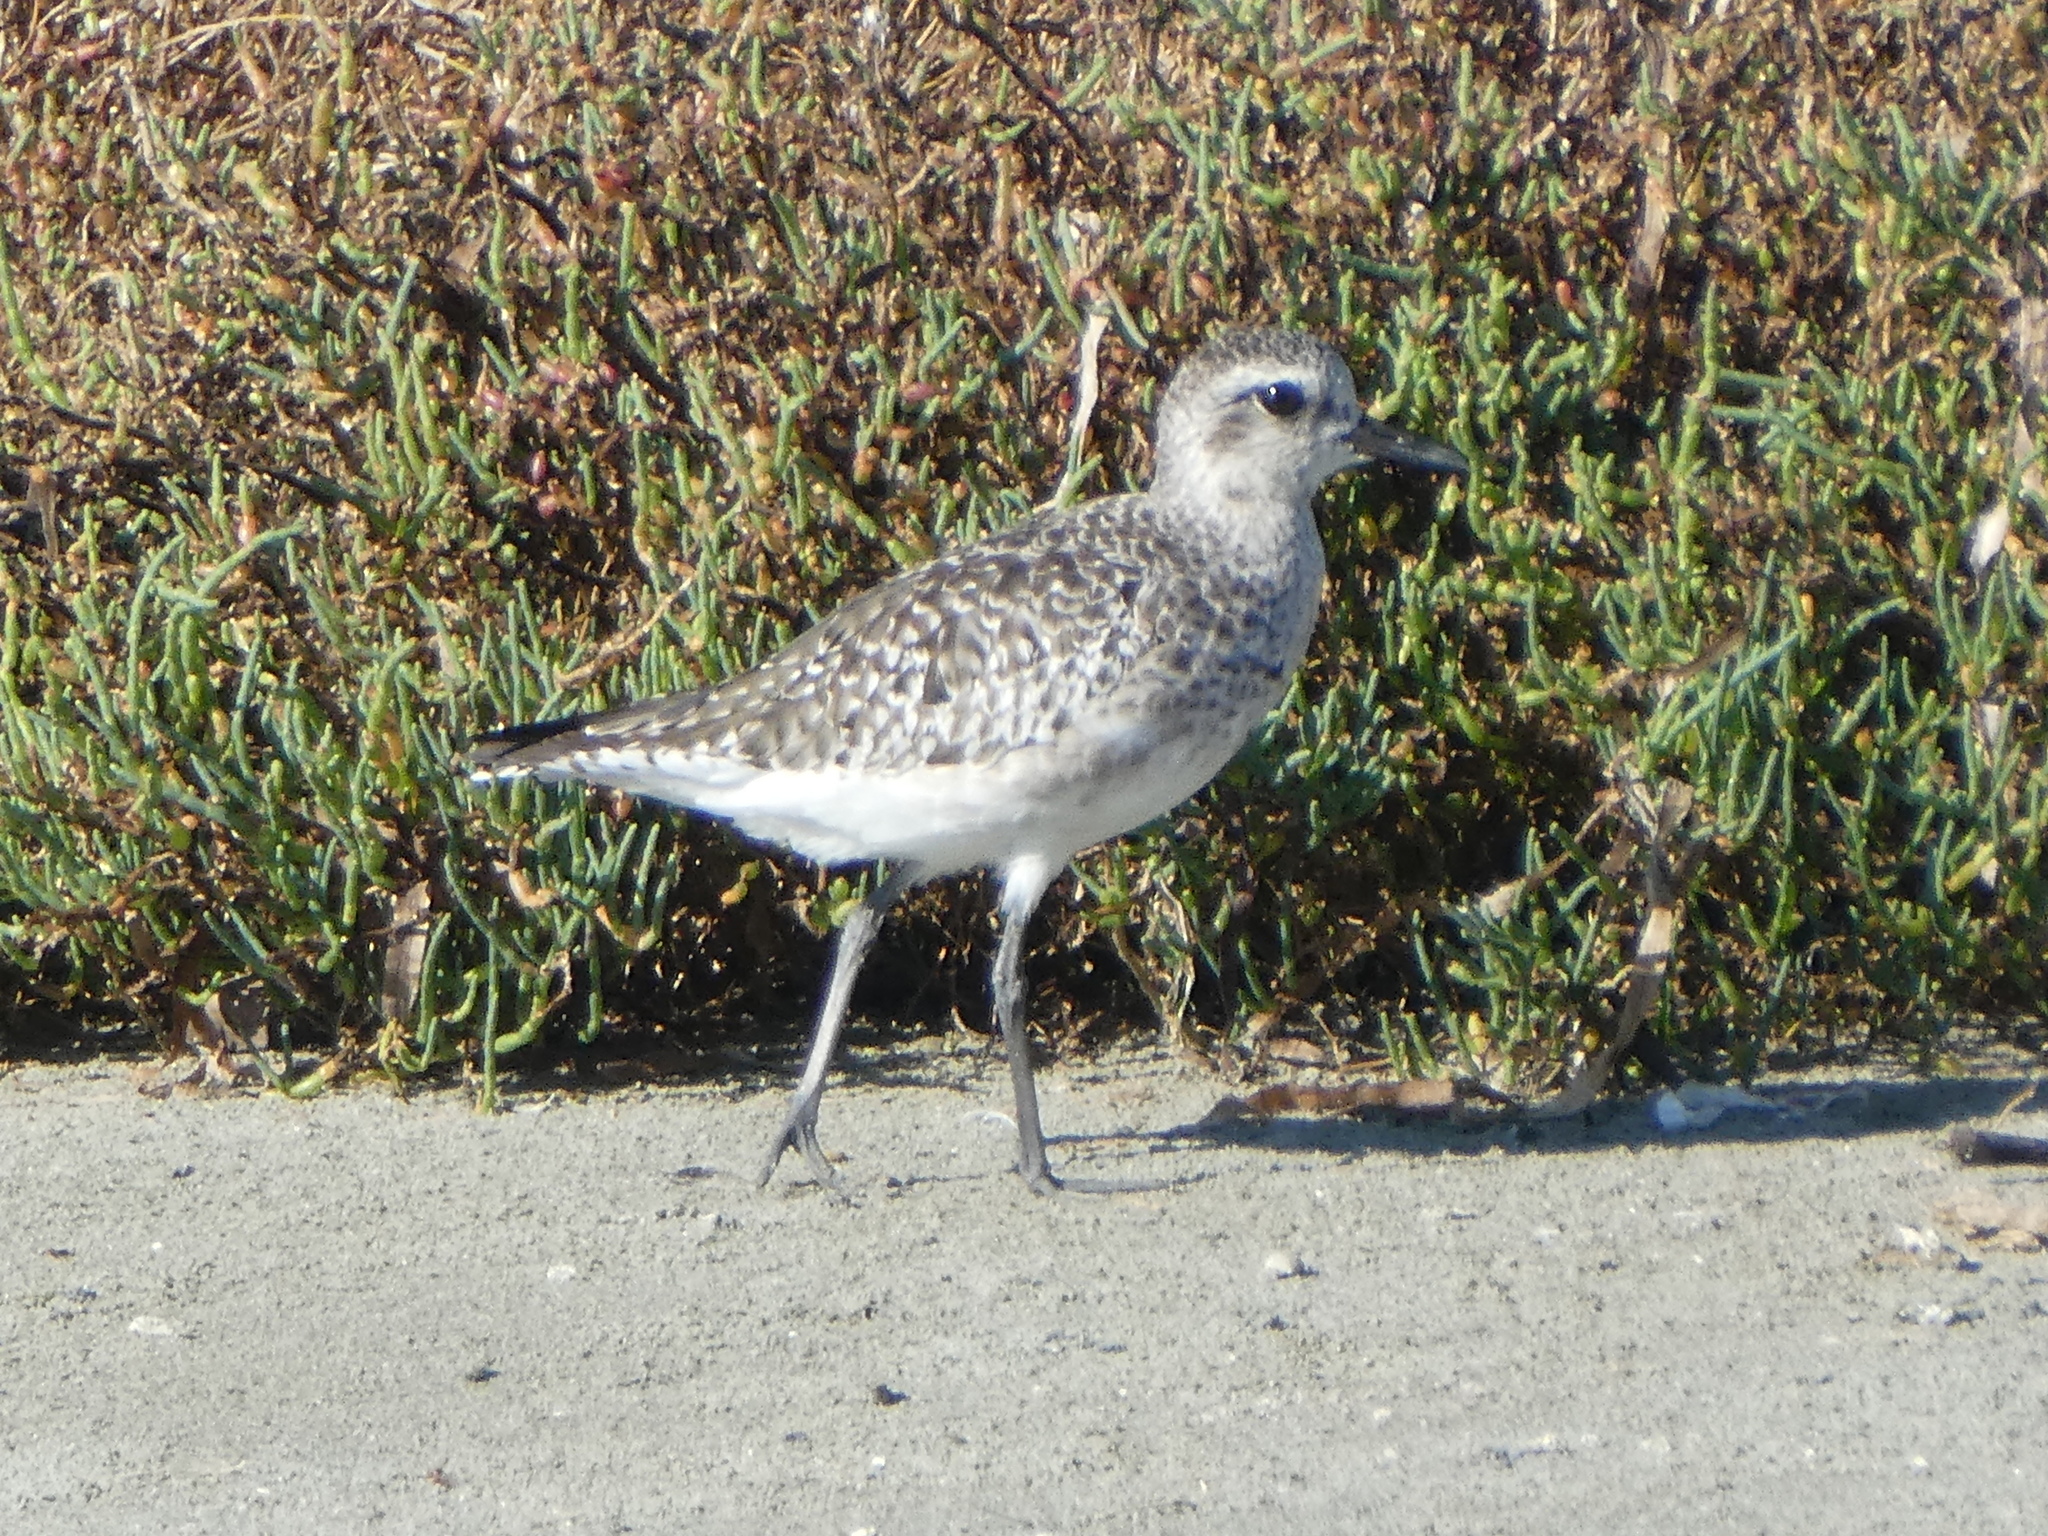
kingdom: Animalia
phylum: Chordata
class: Aves
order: Charadriiformes
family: Charadriidae
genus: Pluvialis
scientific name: Pluvialis squatarola
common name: Grey plover
